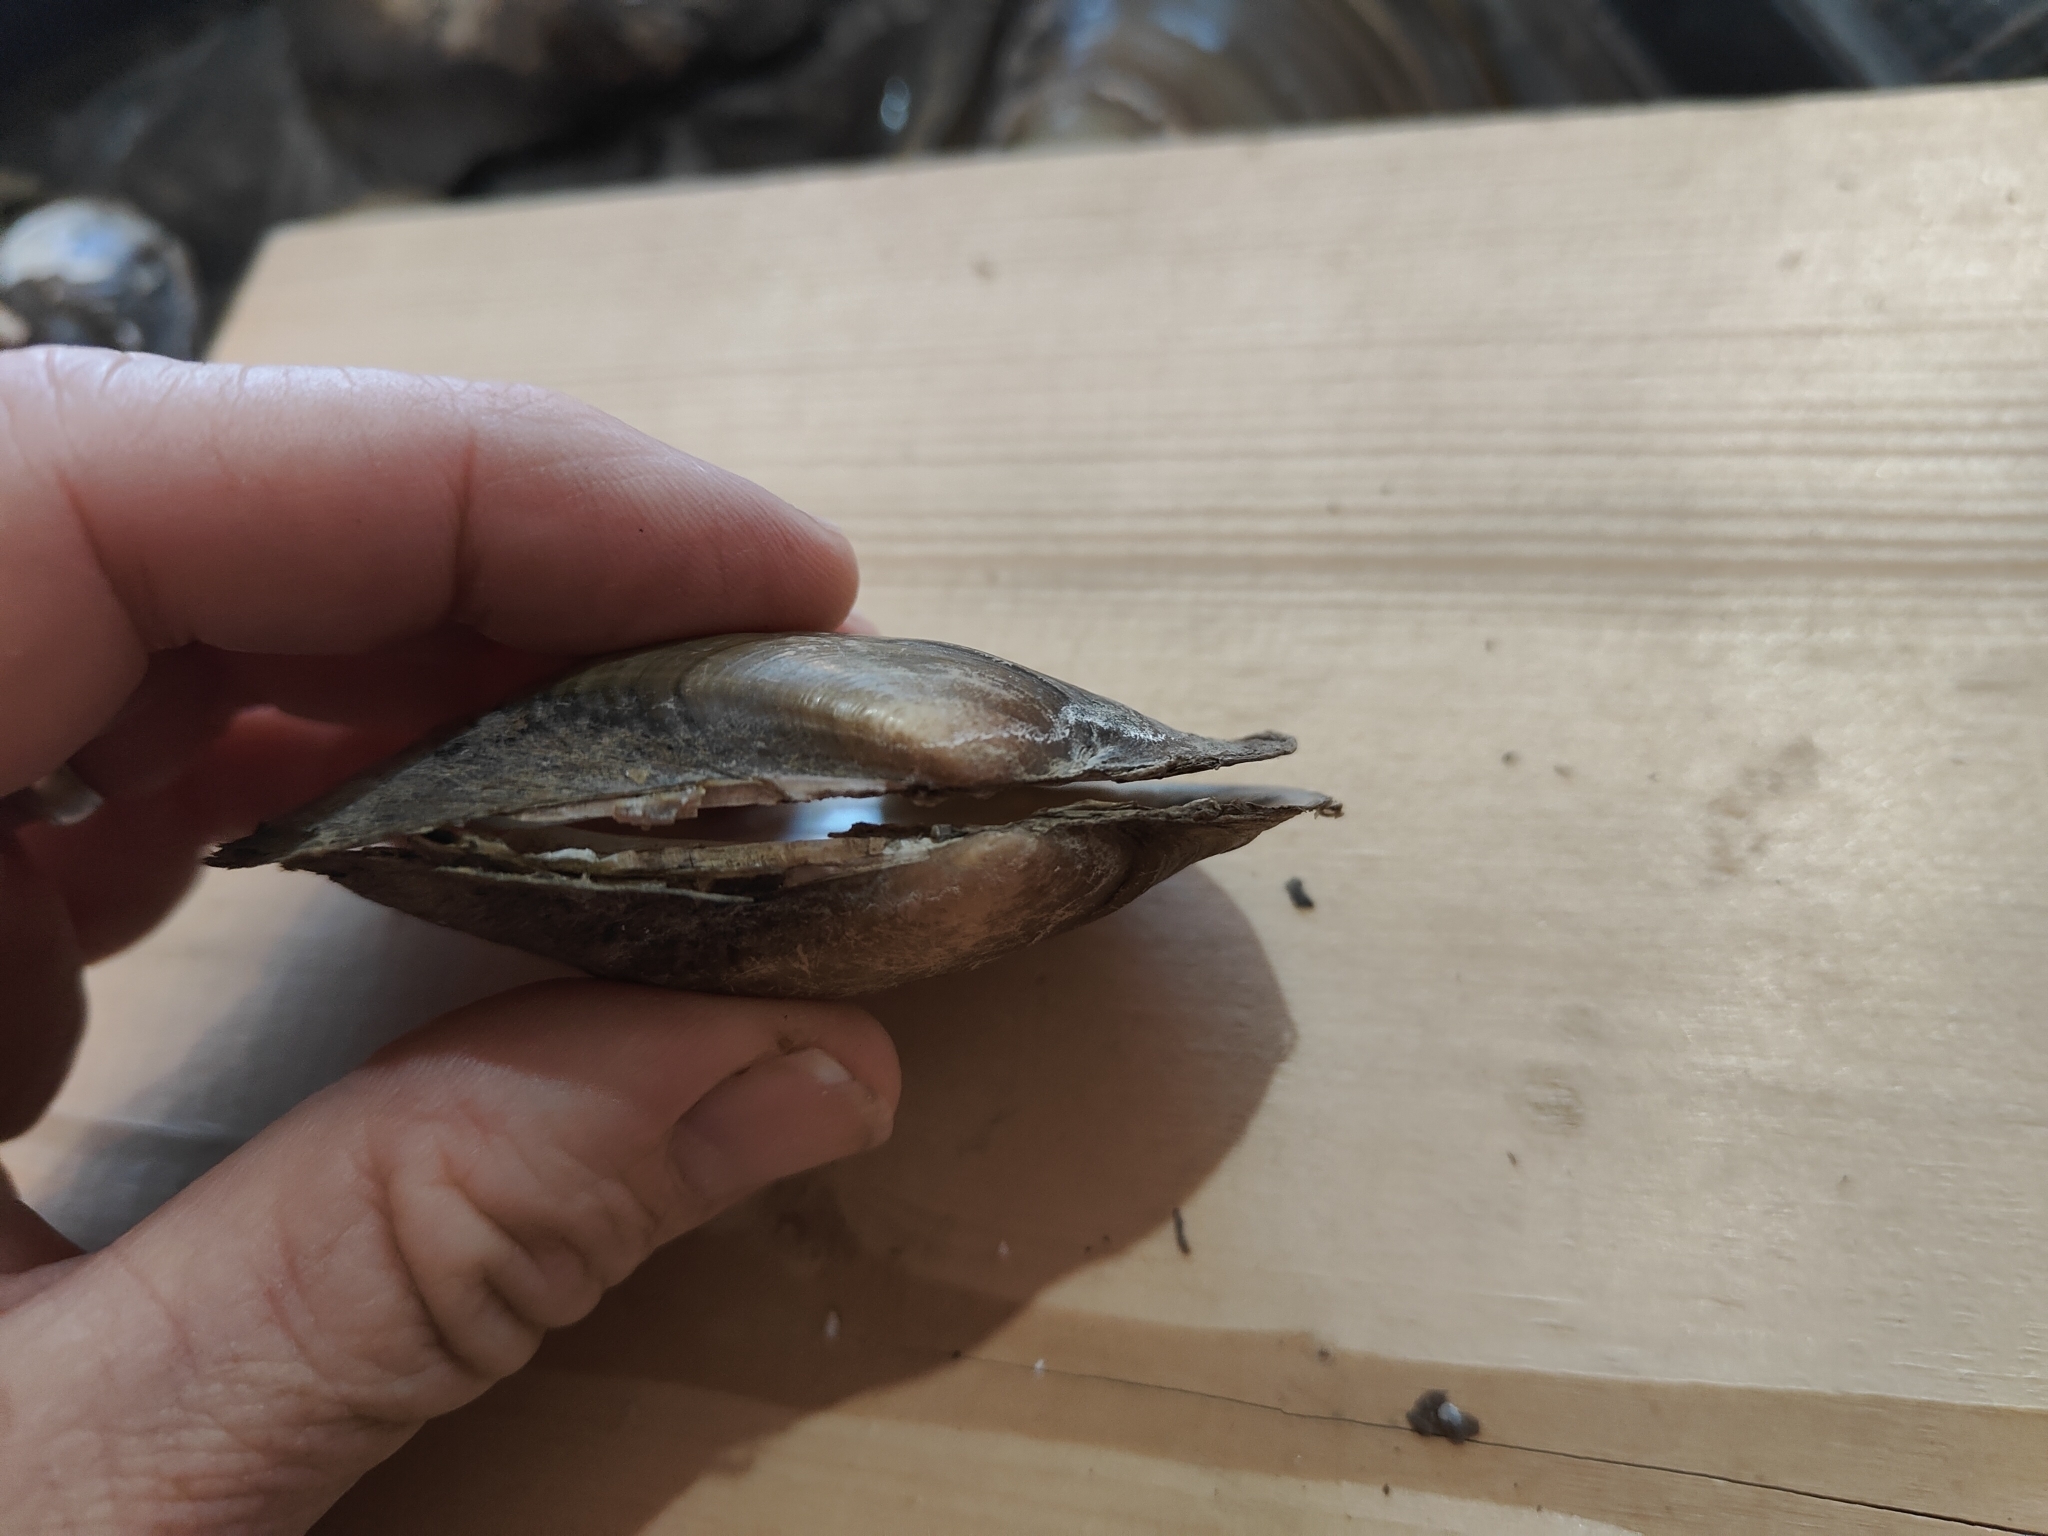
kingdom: Animalia
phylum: Mollusca
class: Bivalvia
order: Unionida
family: Unionidae
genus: Potamilus
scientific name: Potamilus fragilis
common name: Fragile papershell
